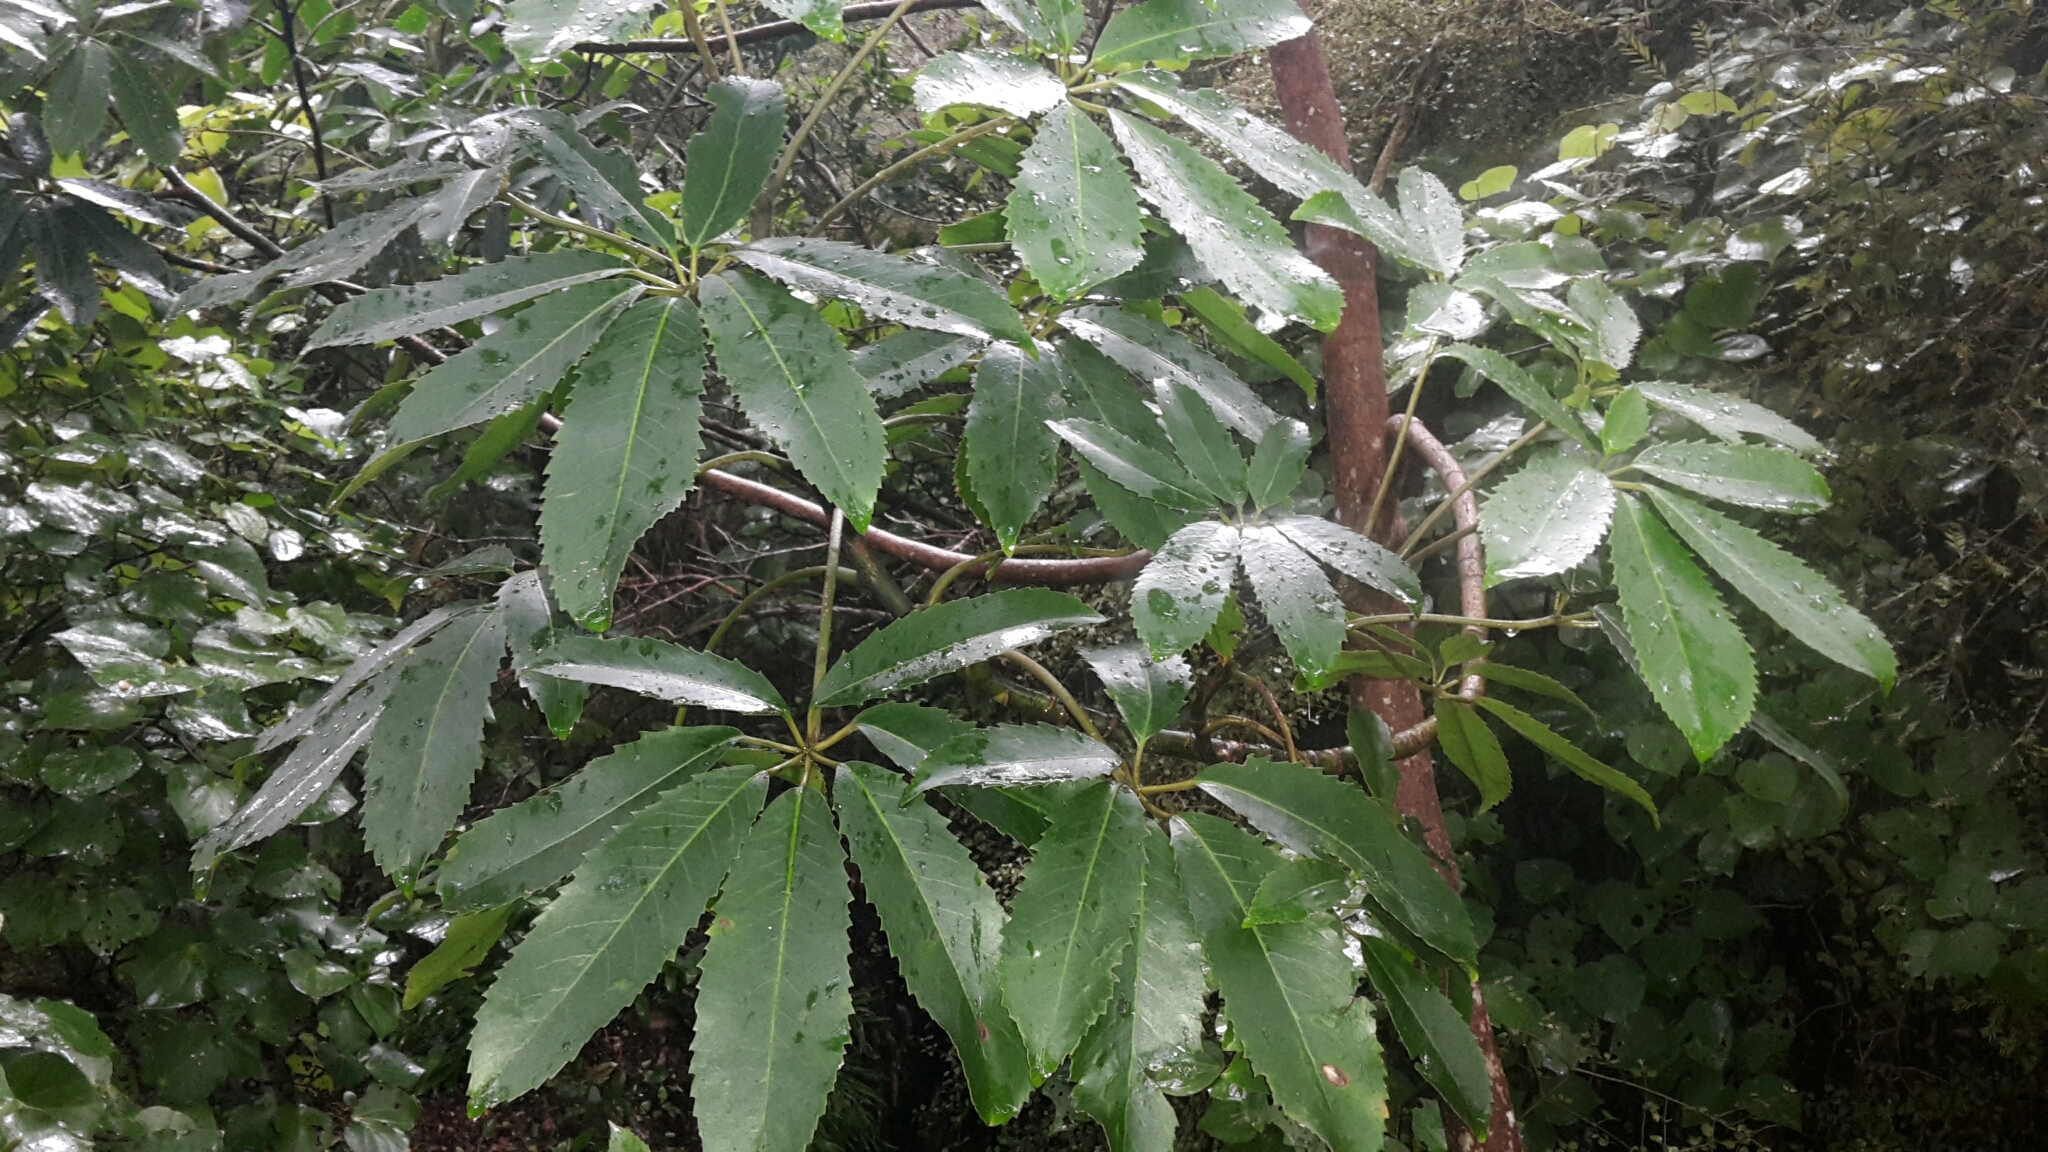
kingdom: Plantae
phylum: Tracheophyta
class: Magnoliopsida
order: Apiales
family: Araliaceae
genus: Neopanax
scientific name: Neopanax arboreus
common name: Five-fingers
